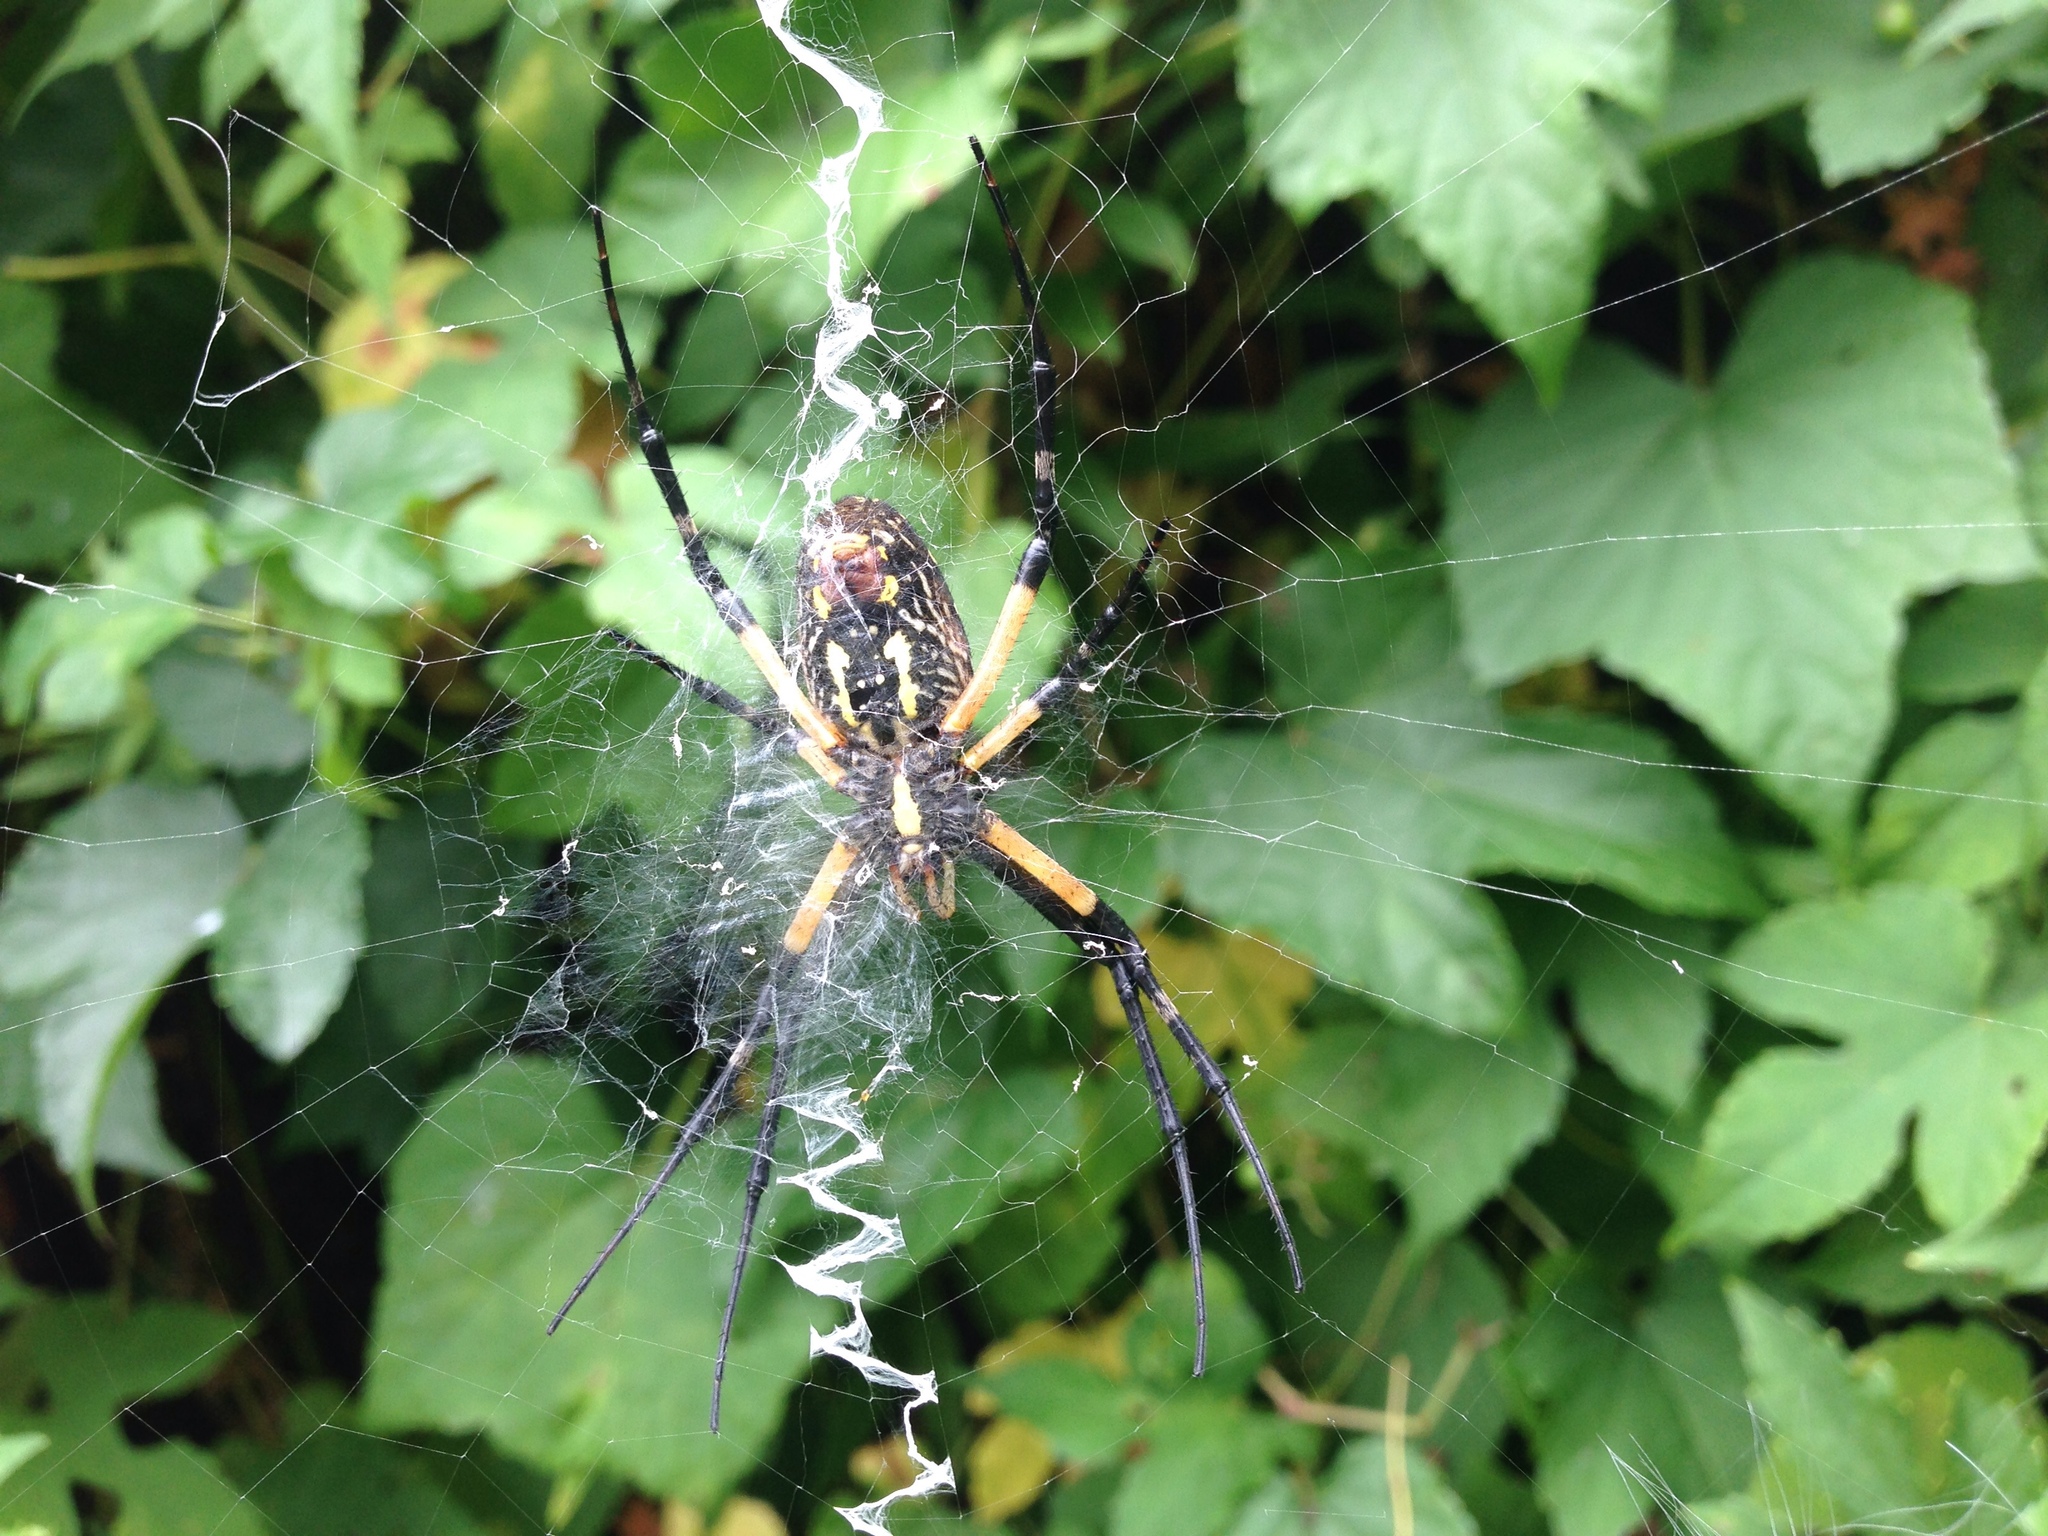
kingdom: Animalia
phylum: Arthropoda
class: Arachnida
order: Araneae
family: Araneidae
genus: Argiope
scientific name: Argiope aurantia
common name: Orb weavers
